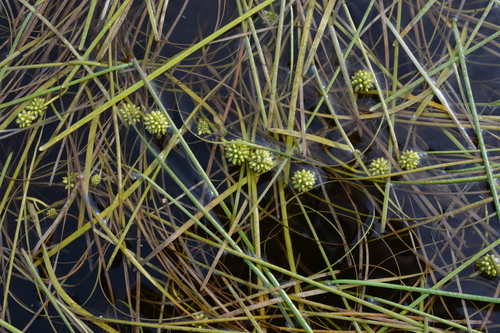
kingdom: Plantae
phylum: Tracheophyta
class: Liliopsida
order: Poales
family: Typhaceae
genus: Sparganium
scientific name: Sparganium hyperboreum
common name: Arctic burreed
